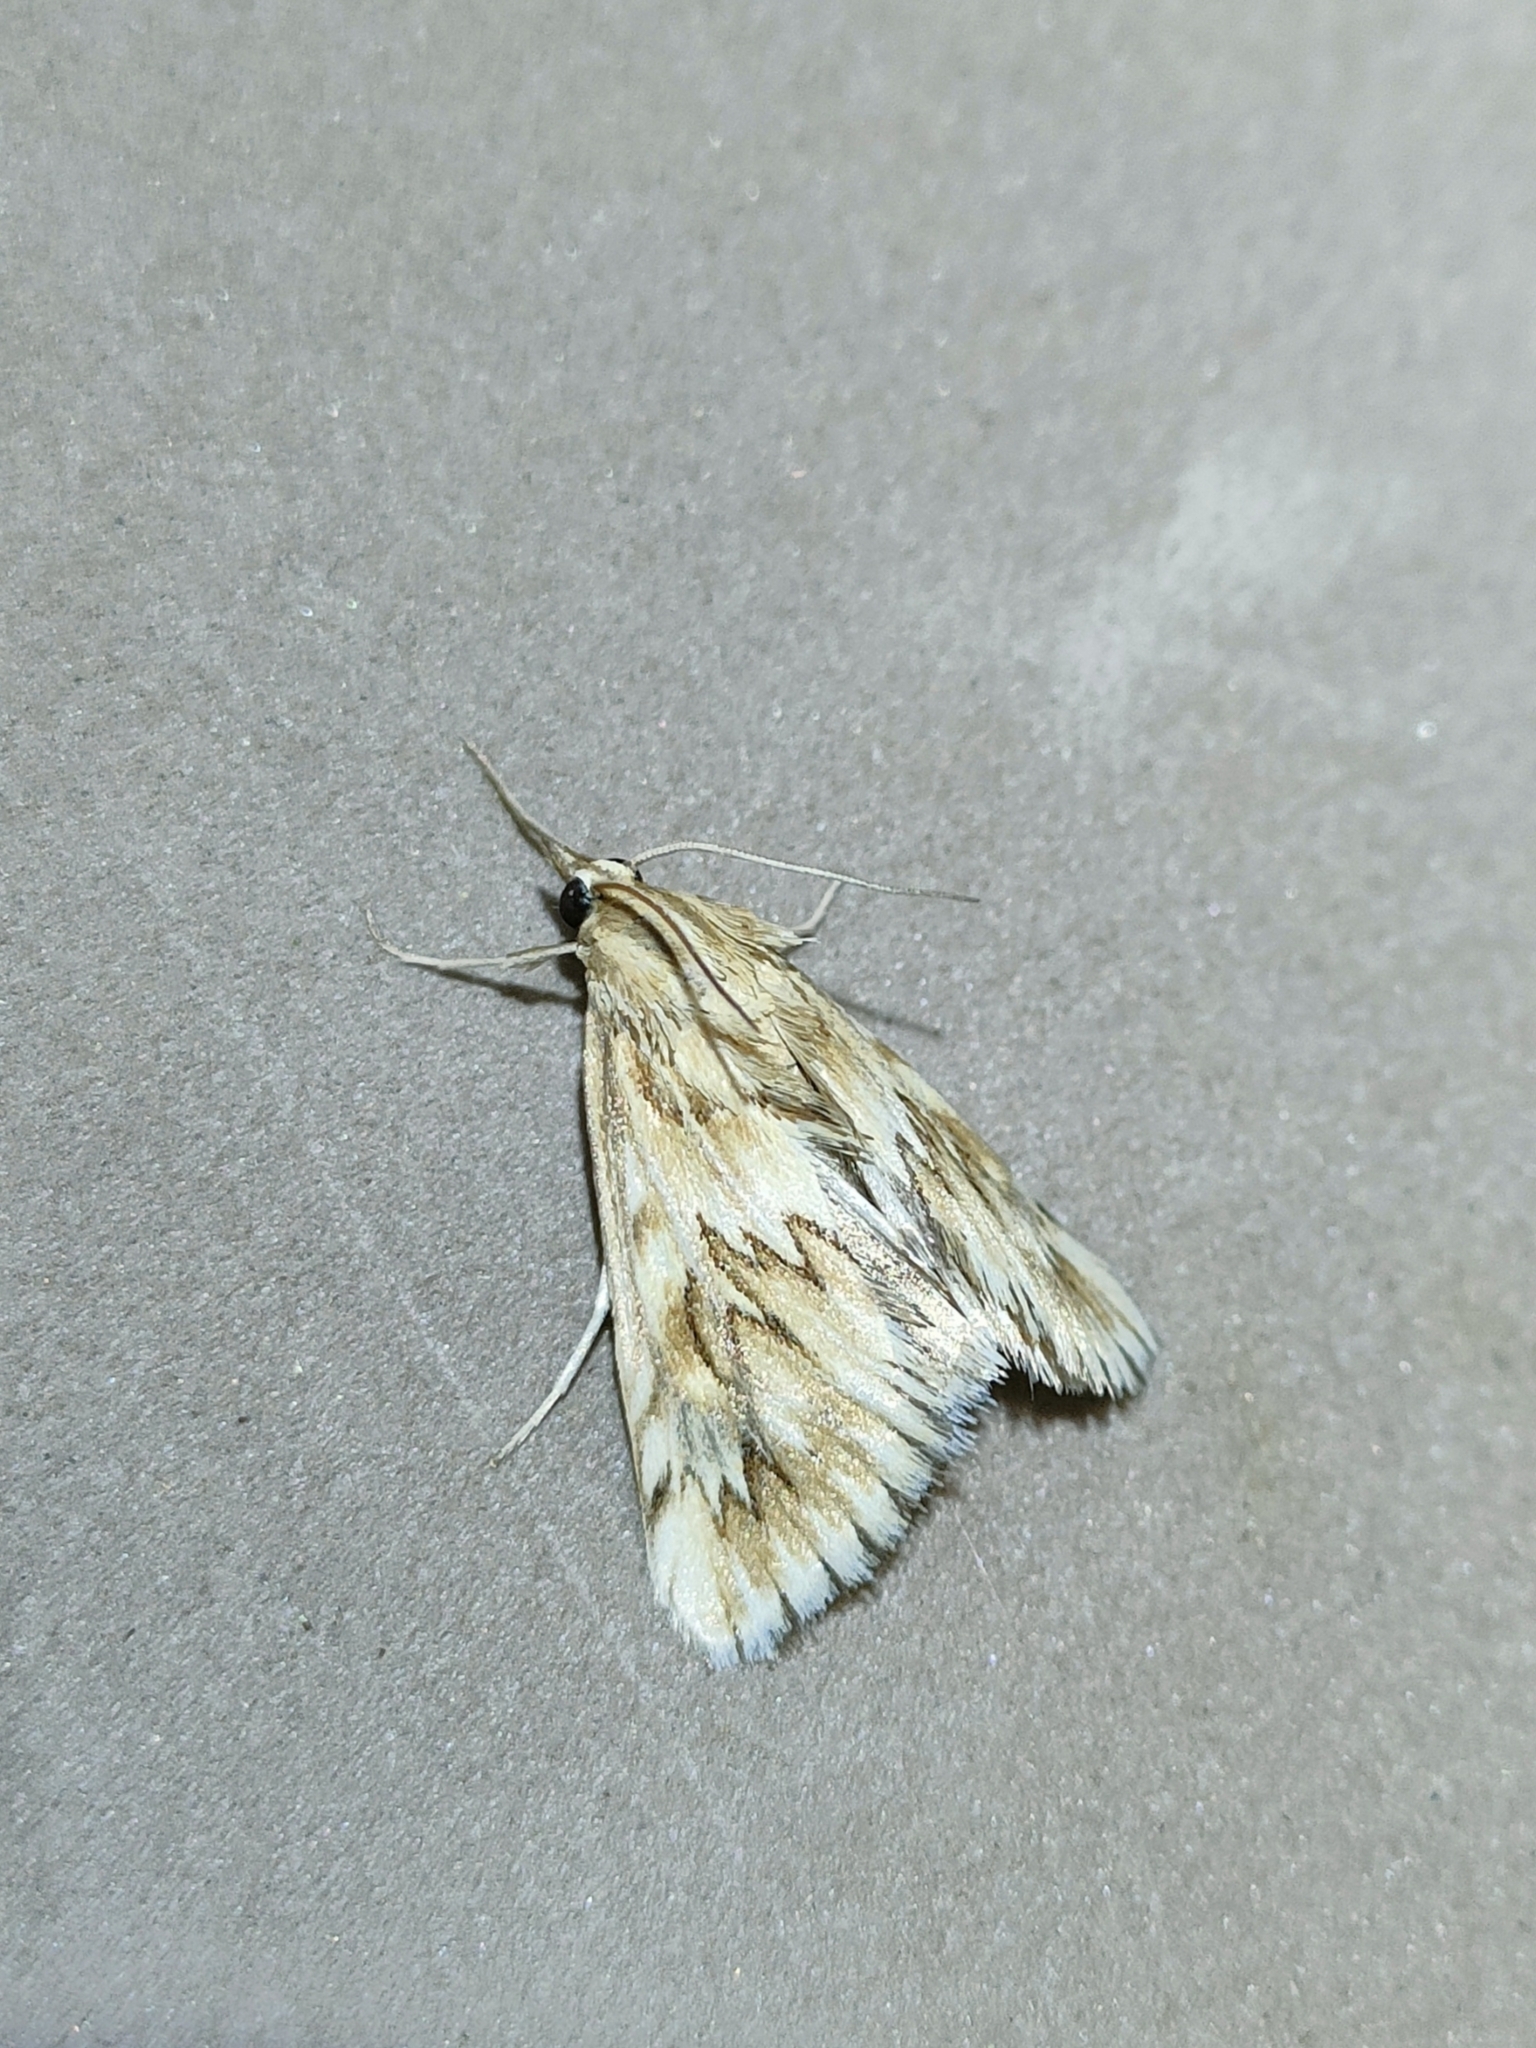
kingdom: Animalia
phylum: Arthropoda
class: Insecta
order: Lepidoptera
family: Crambidae
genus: Cynaeda
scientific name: Cynaeda dentalis
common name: Starry pearl
